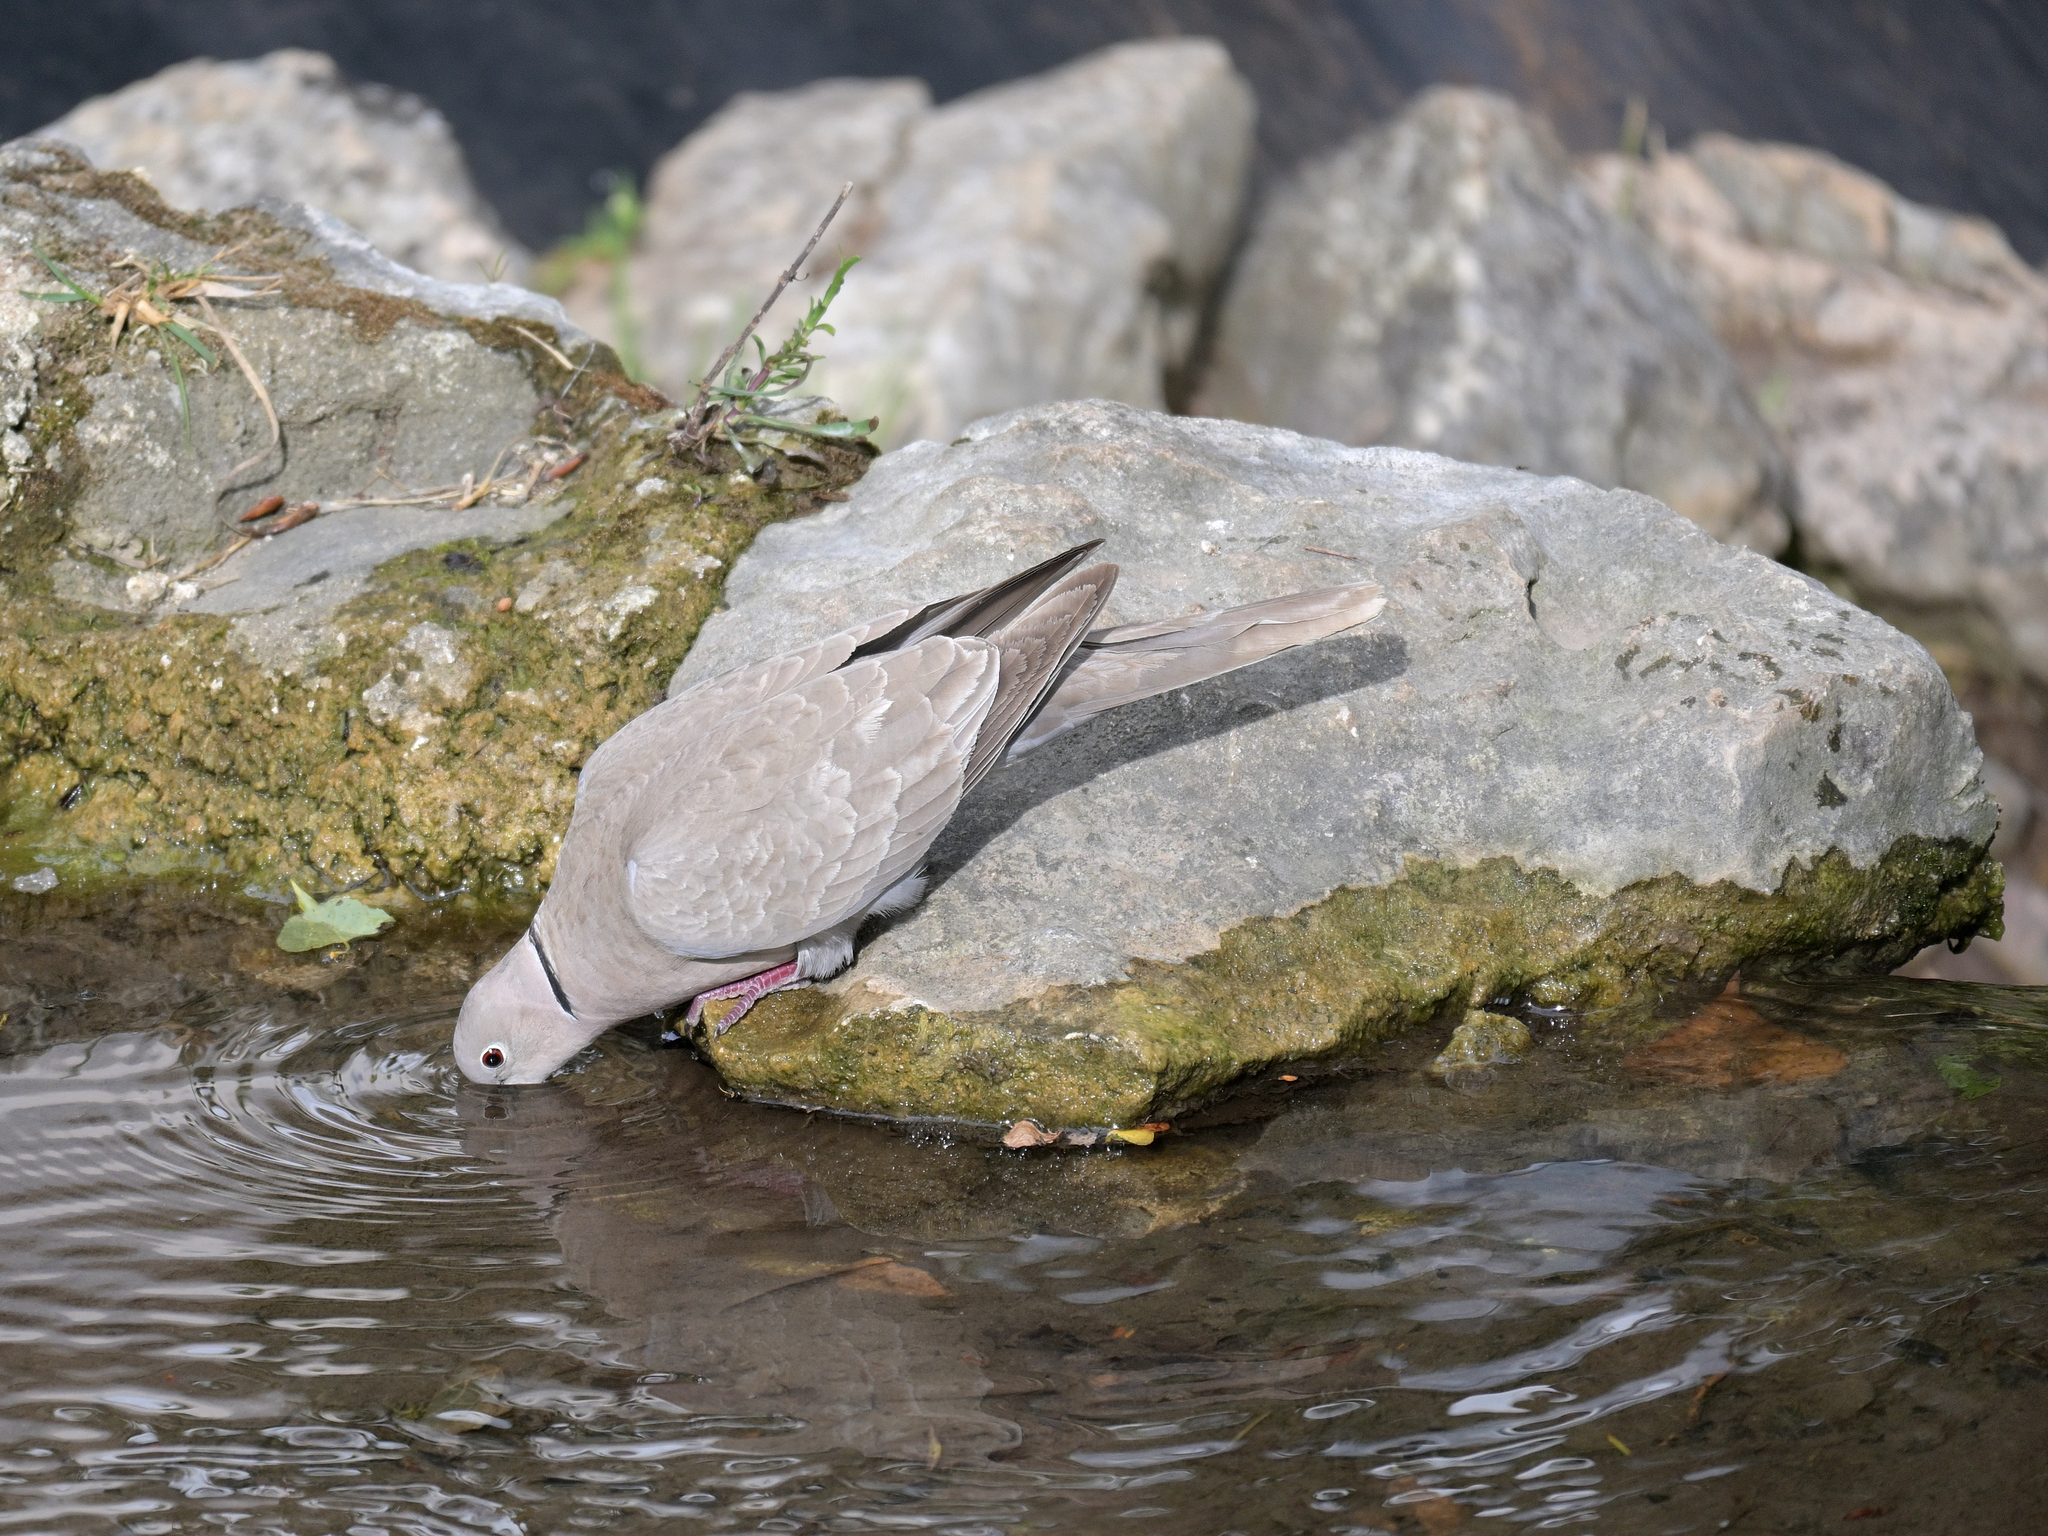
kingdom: Animalia
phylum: Chordata
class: Aves
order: Columbiformes
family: Columbidae
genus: Streptopelia
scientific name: Streptopelia decaocto
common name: Eurasian collared dove
